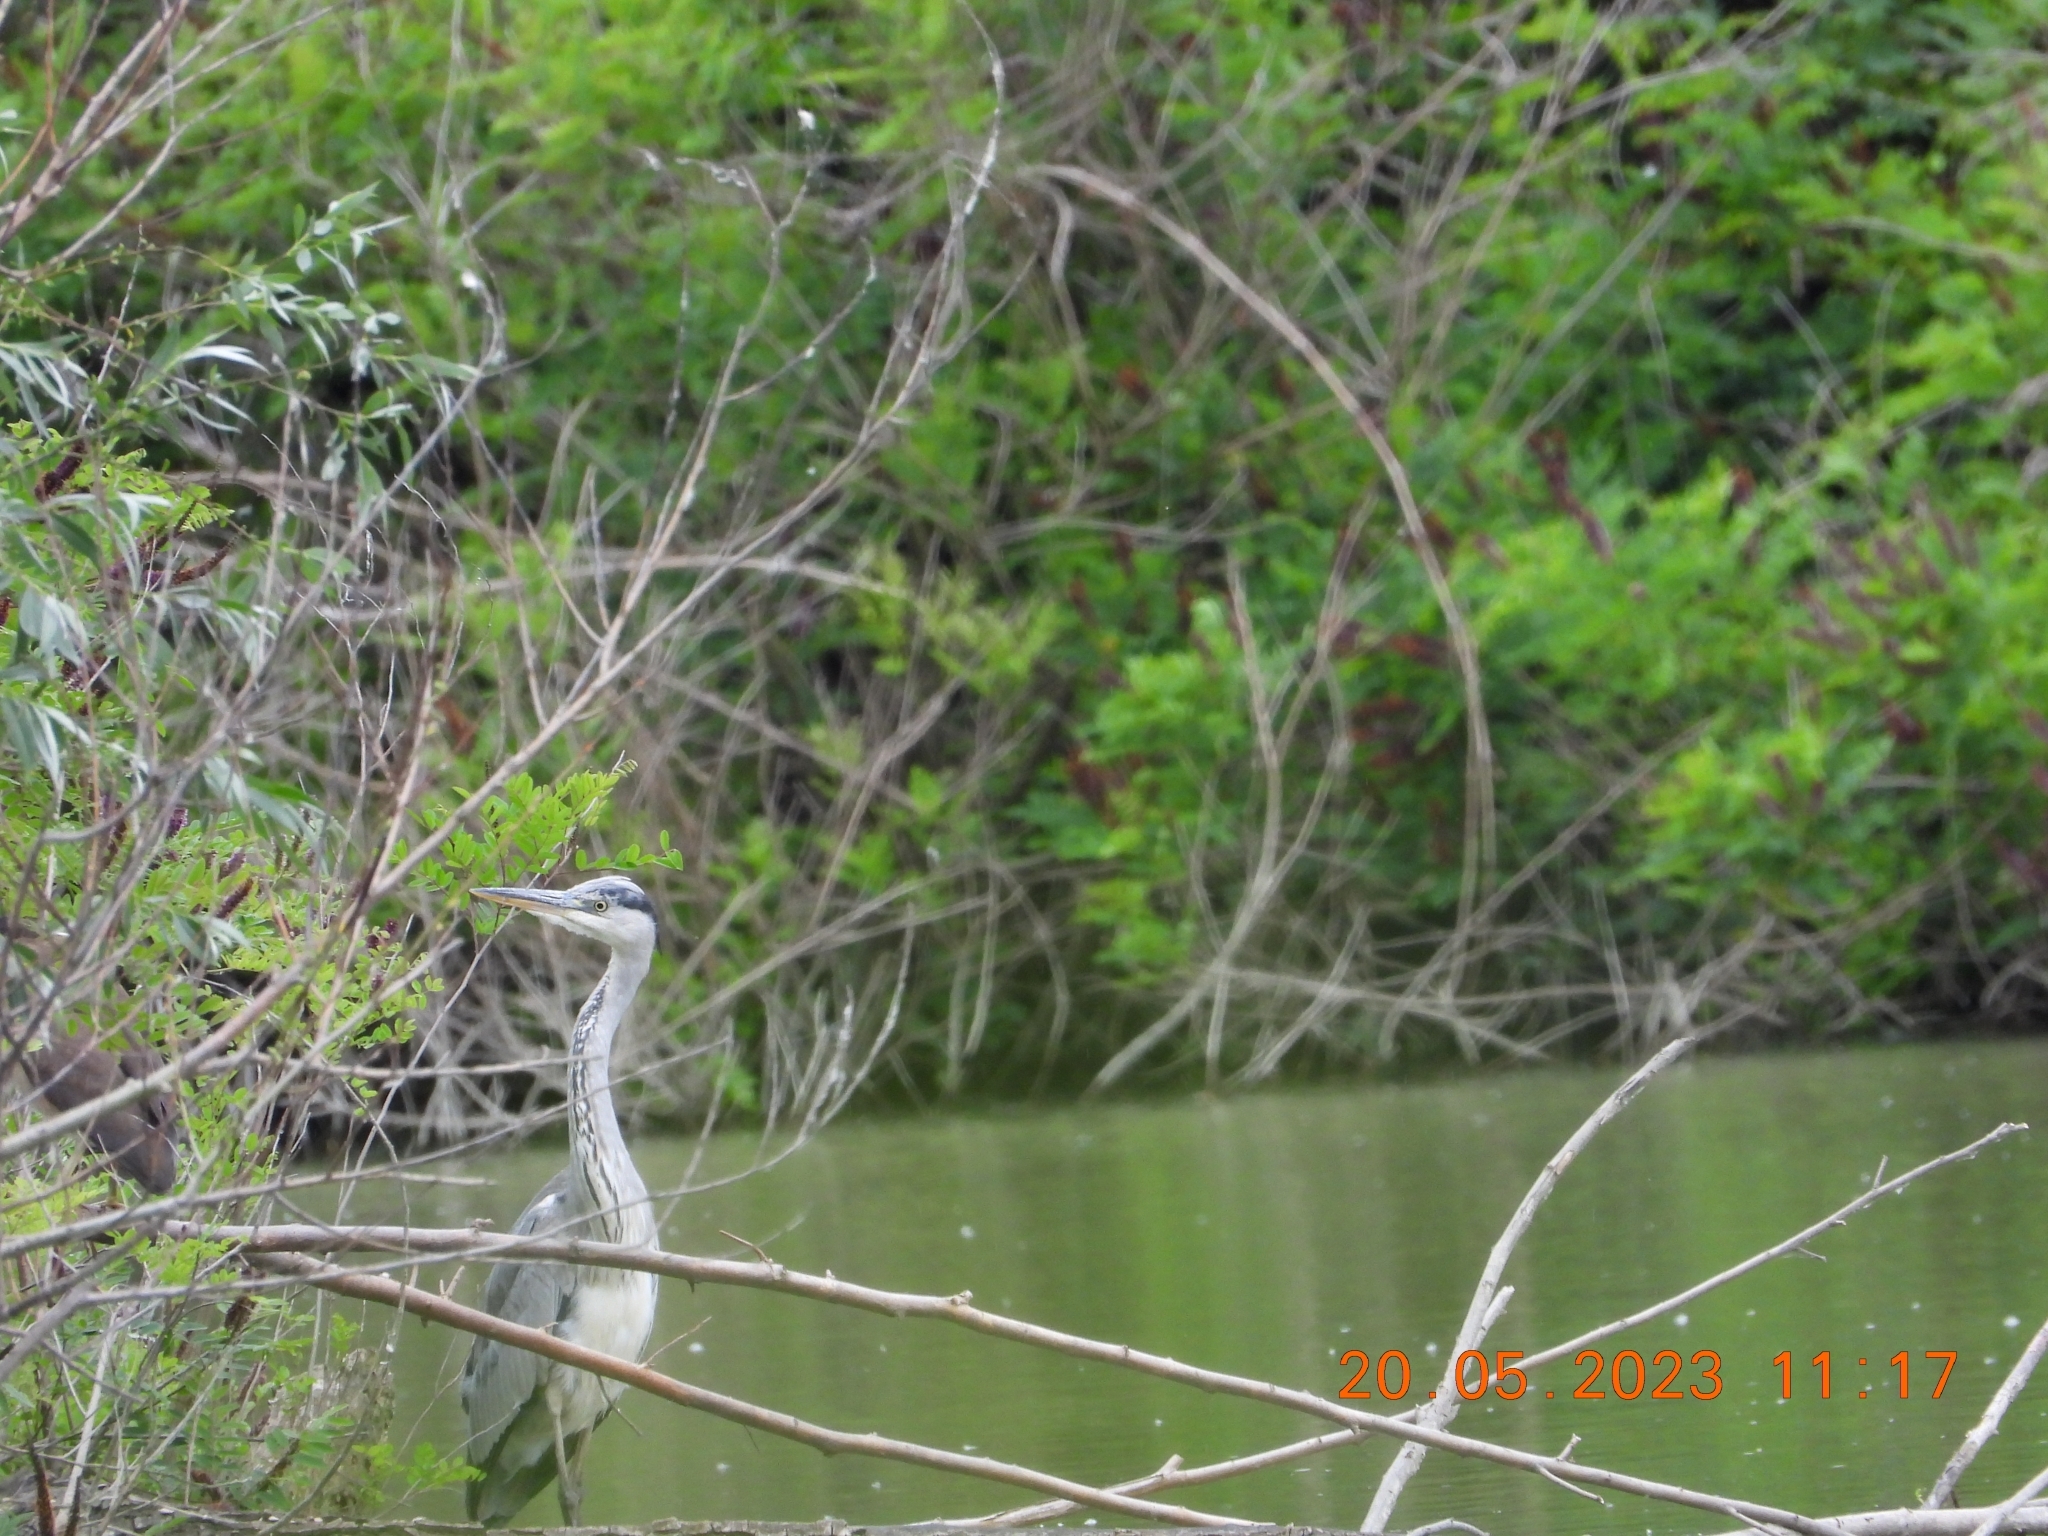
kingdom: Animalia
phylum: Chordata
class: Aves
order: Pelecaniformes
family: Ardeidae
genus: Ardea
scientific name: Ardea cinerea
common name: Grey heron
